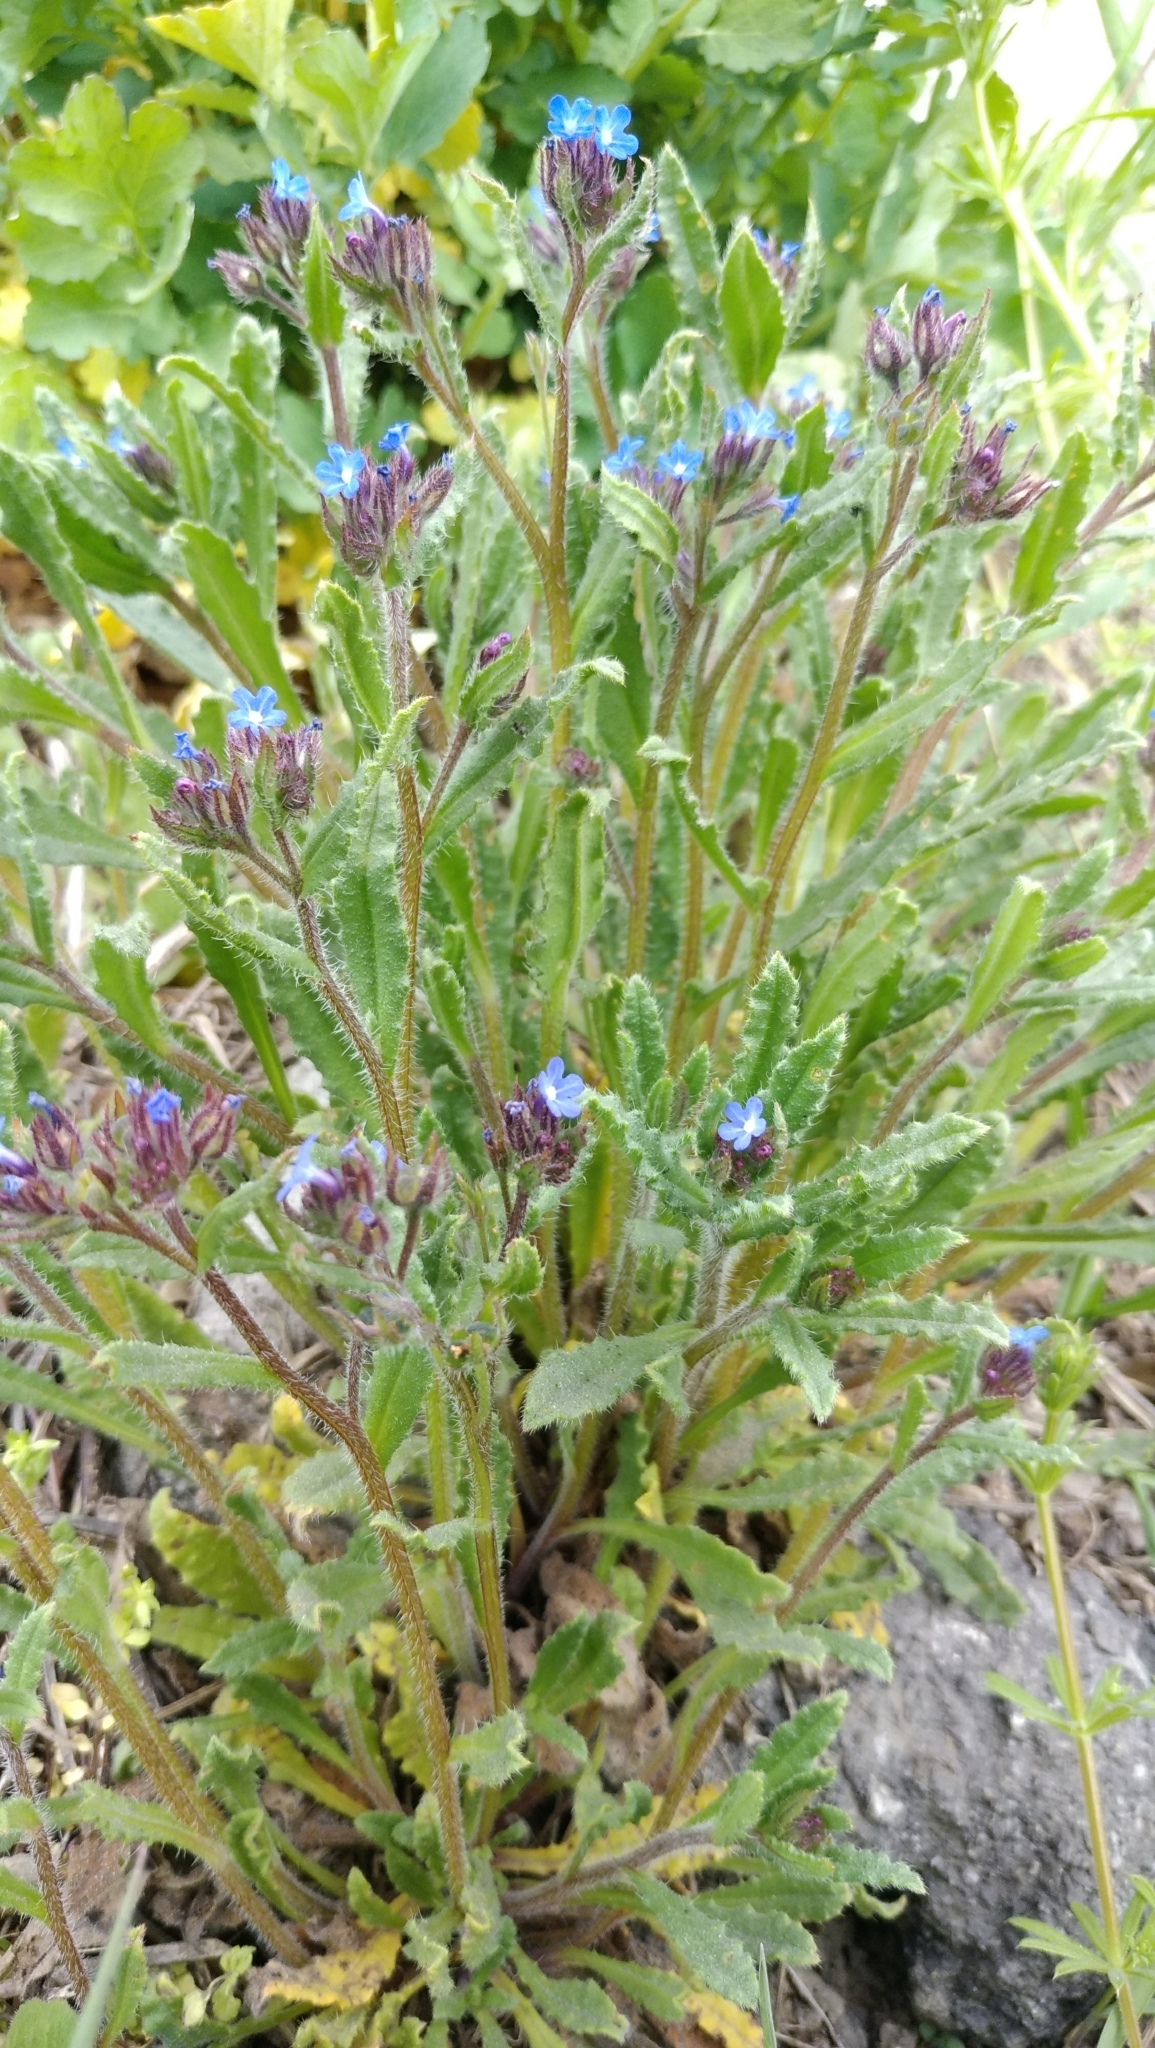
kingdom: Plantae
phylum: Tracheophyta
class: Magnoliopsida
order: Boraginales
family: Boraginaceae
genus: Lycopsis
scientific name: Lycopsis arvensis
